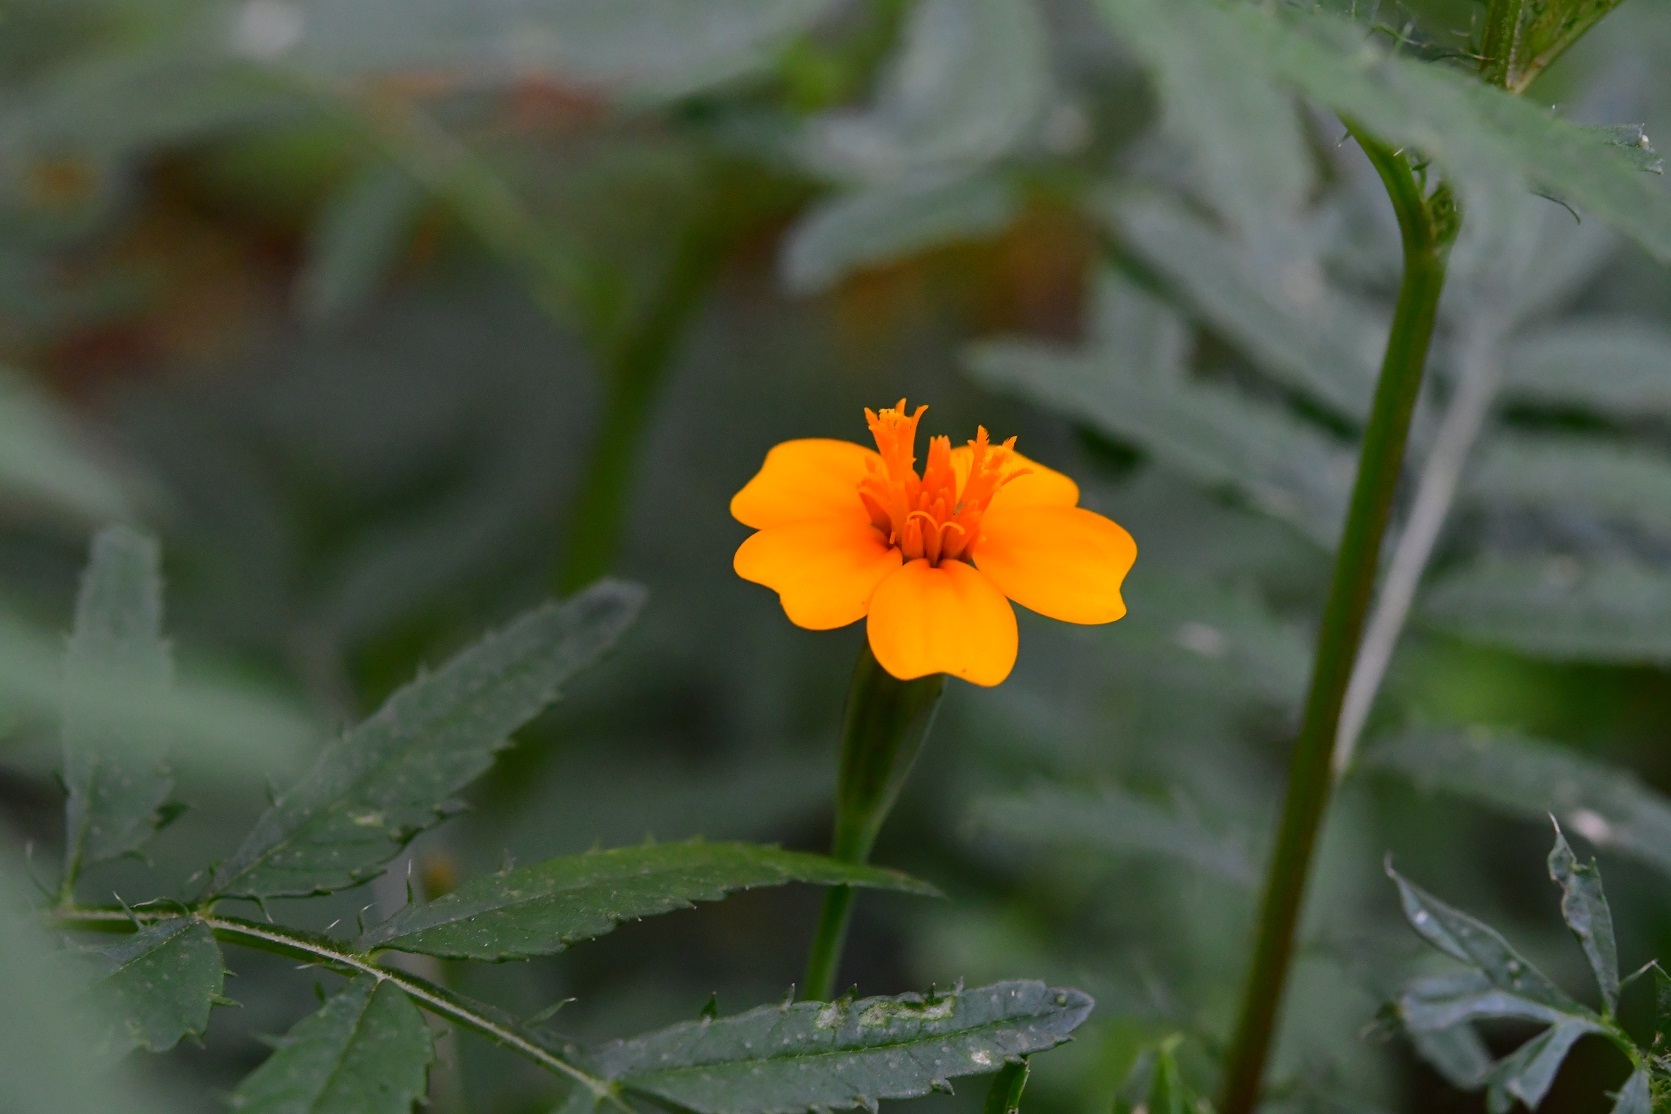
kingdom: Plantae
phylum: Tracheophyta
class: Magnoliopsida
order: Asterales
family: Asteraceae
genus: Tagetes
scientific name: Tagetes tenuifolia
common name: Signet marigold
